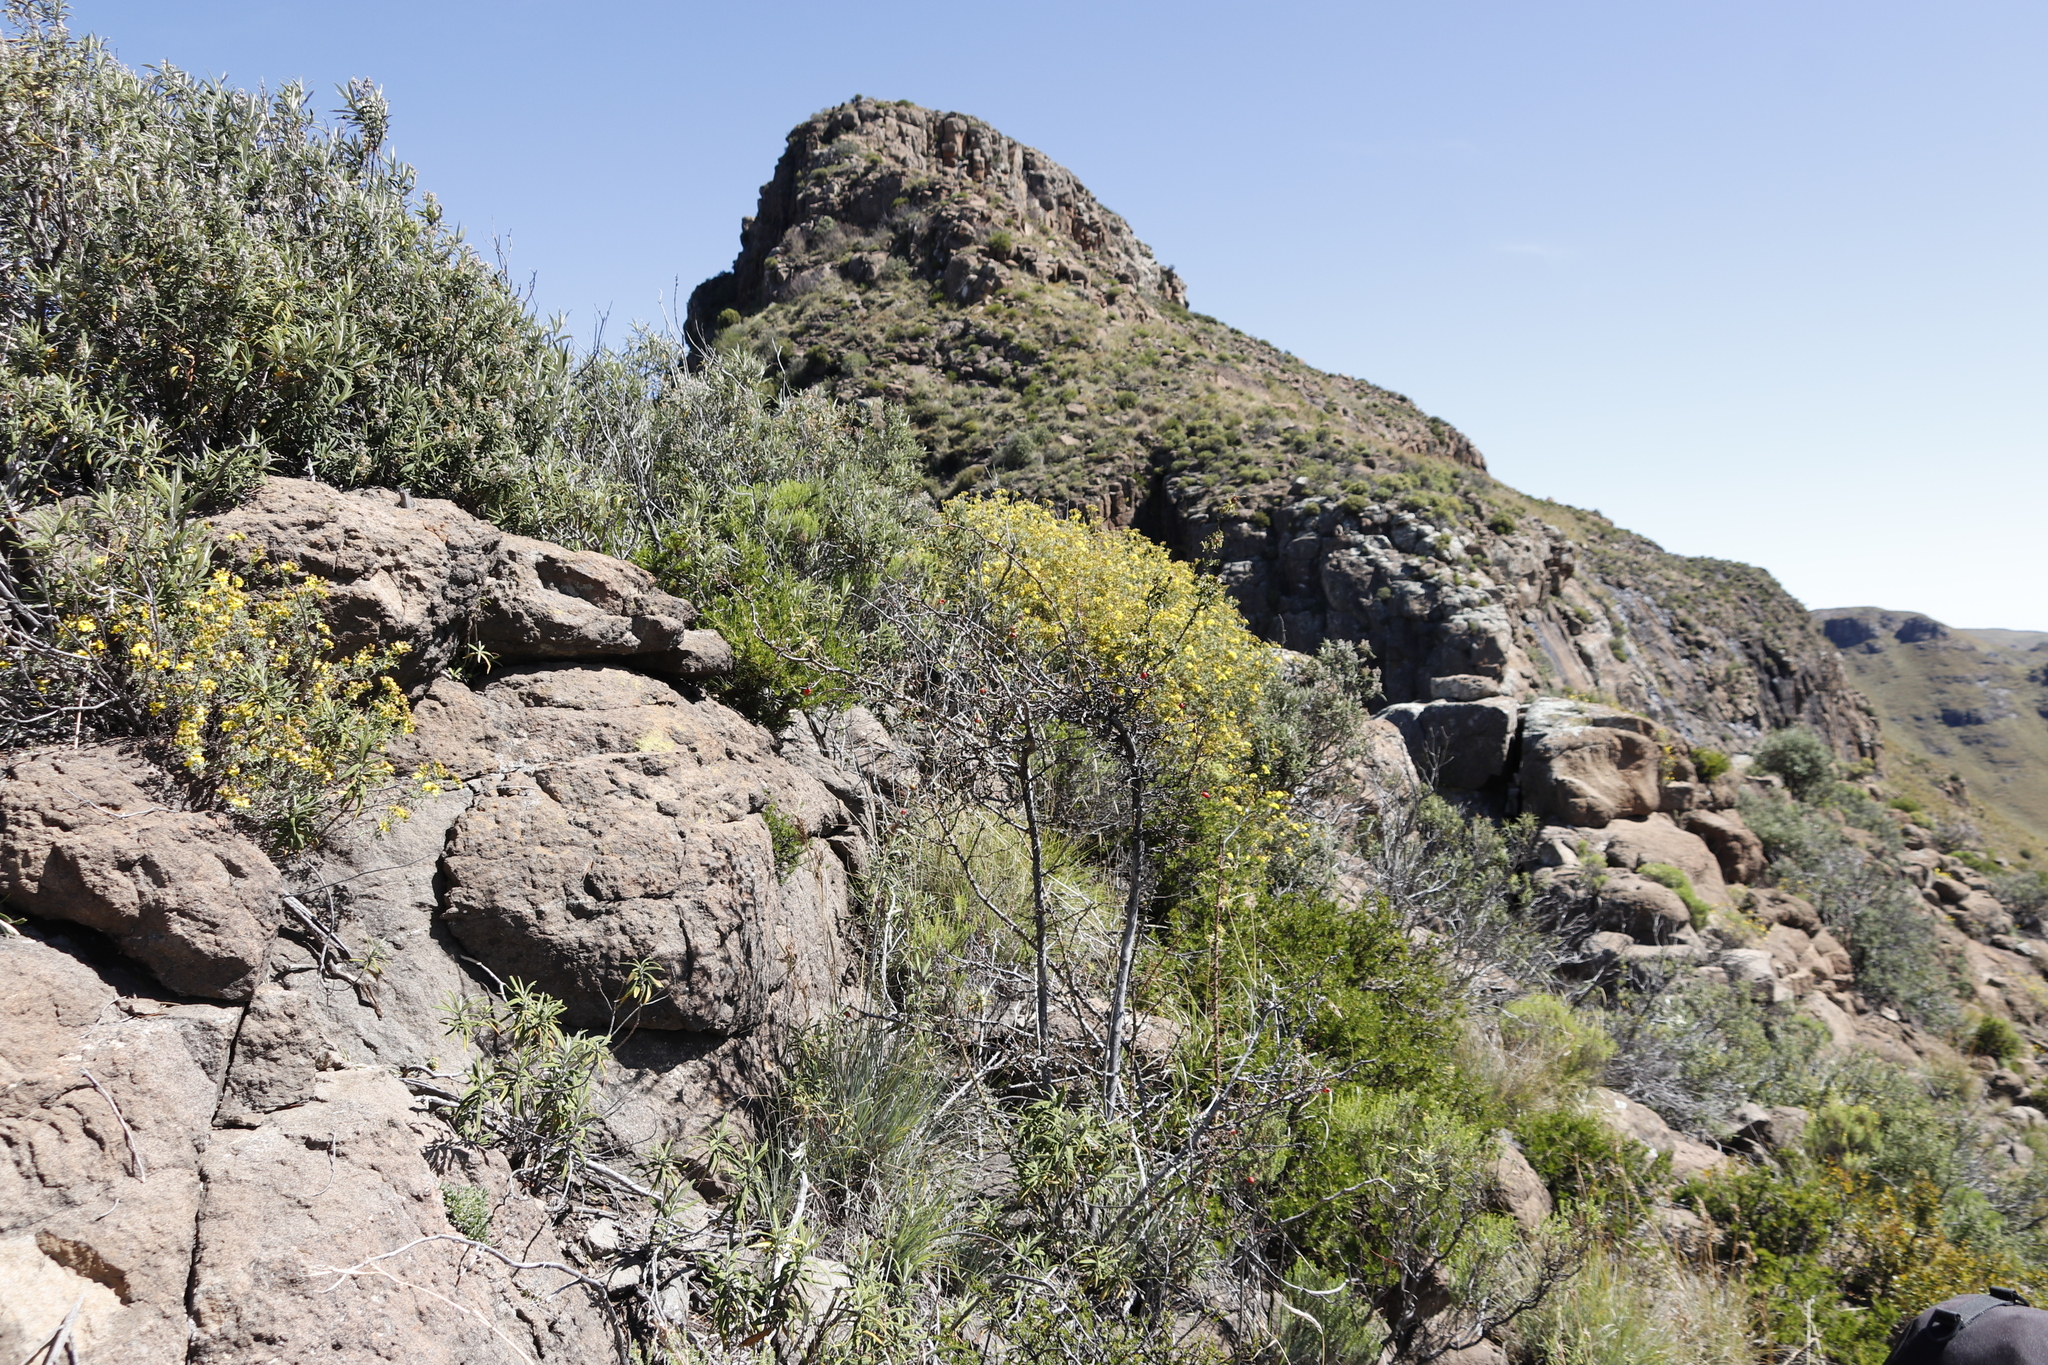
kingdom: Plantae
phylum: Tracheophyta
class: Magnoliopsida
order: Lamiales
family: Scrophulariaceae
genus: Buddleja
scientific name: Buddleja loricata
